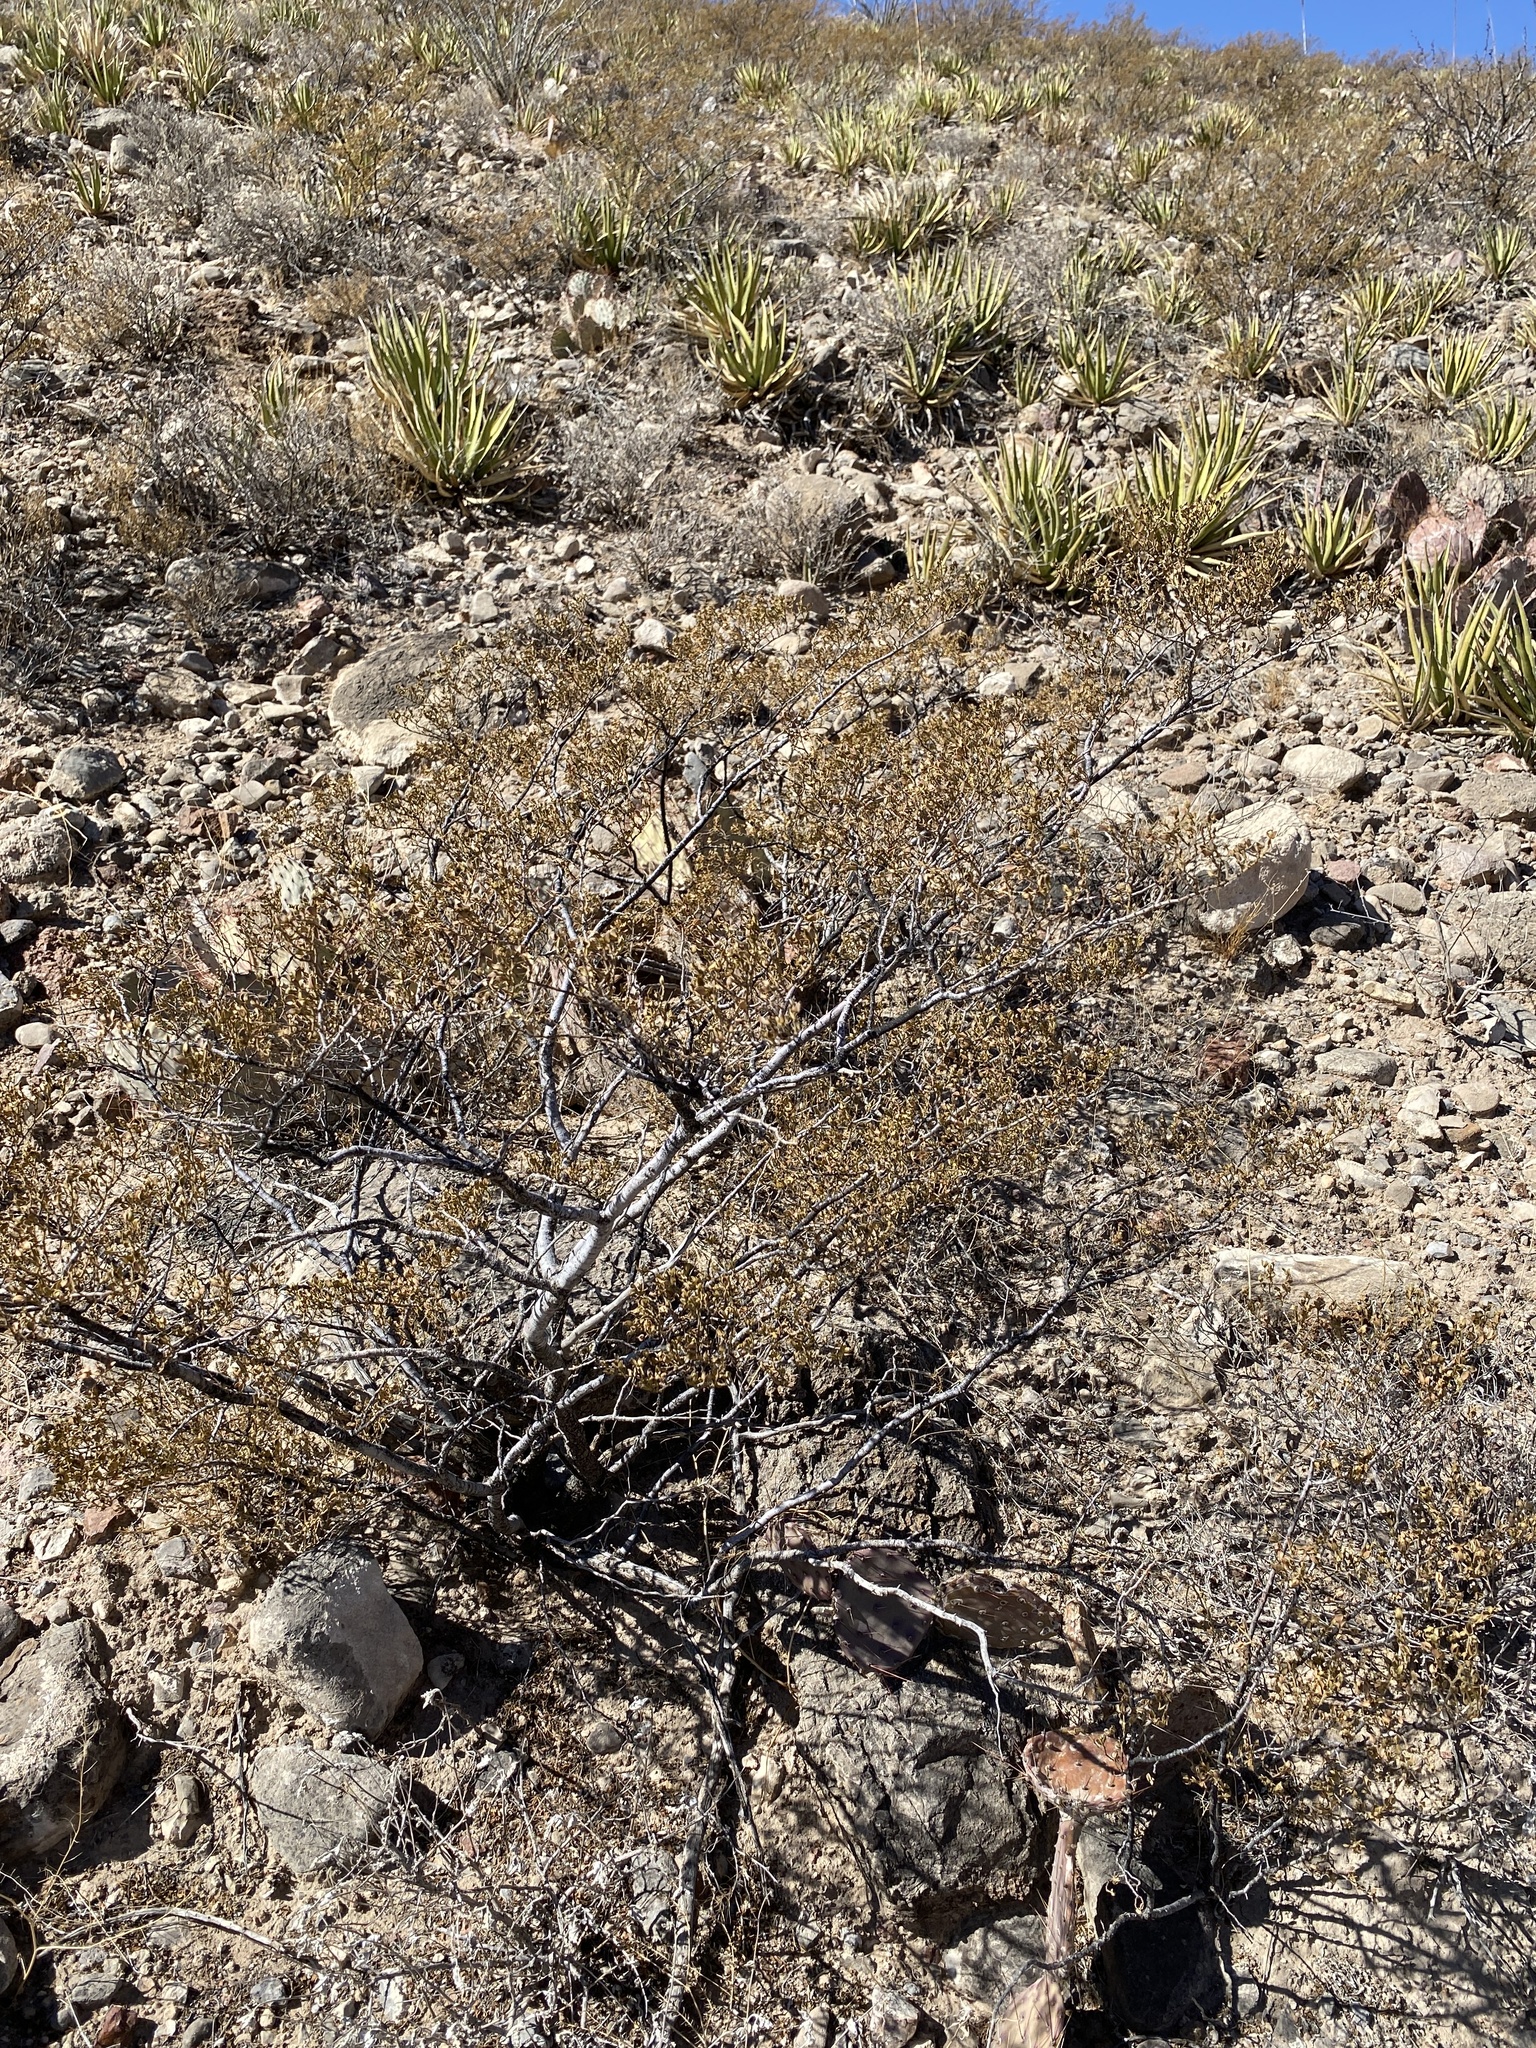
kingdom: Plantae
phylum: Tracheophyta
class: Magnoliopsida
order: Zygophyllales
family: Zygophyllaceae
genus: Larrea
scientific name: Larrea tridentata
